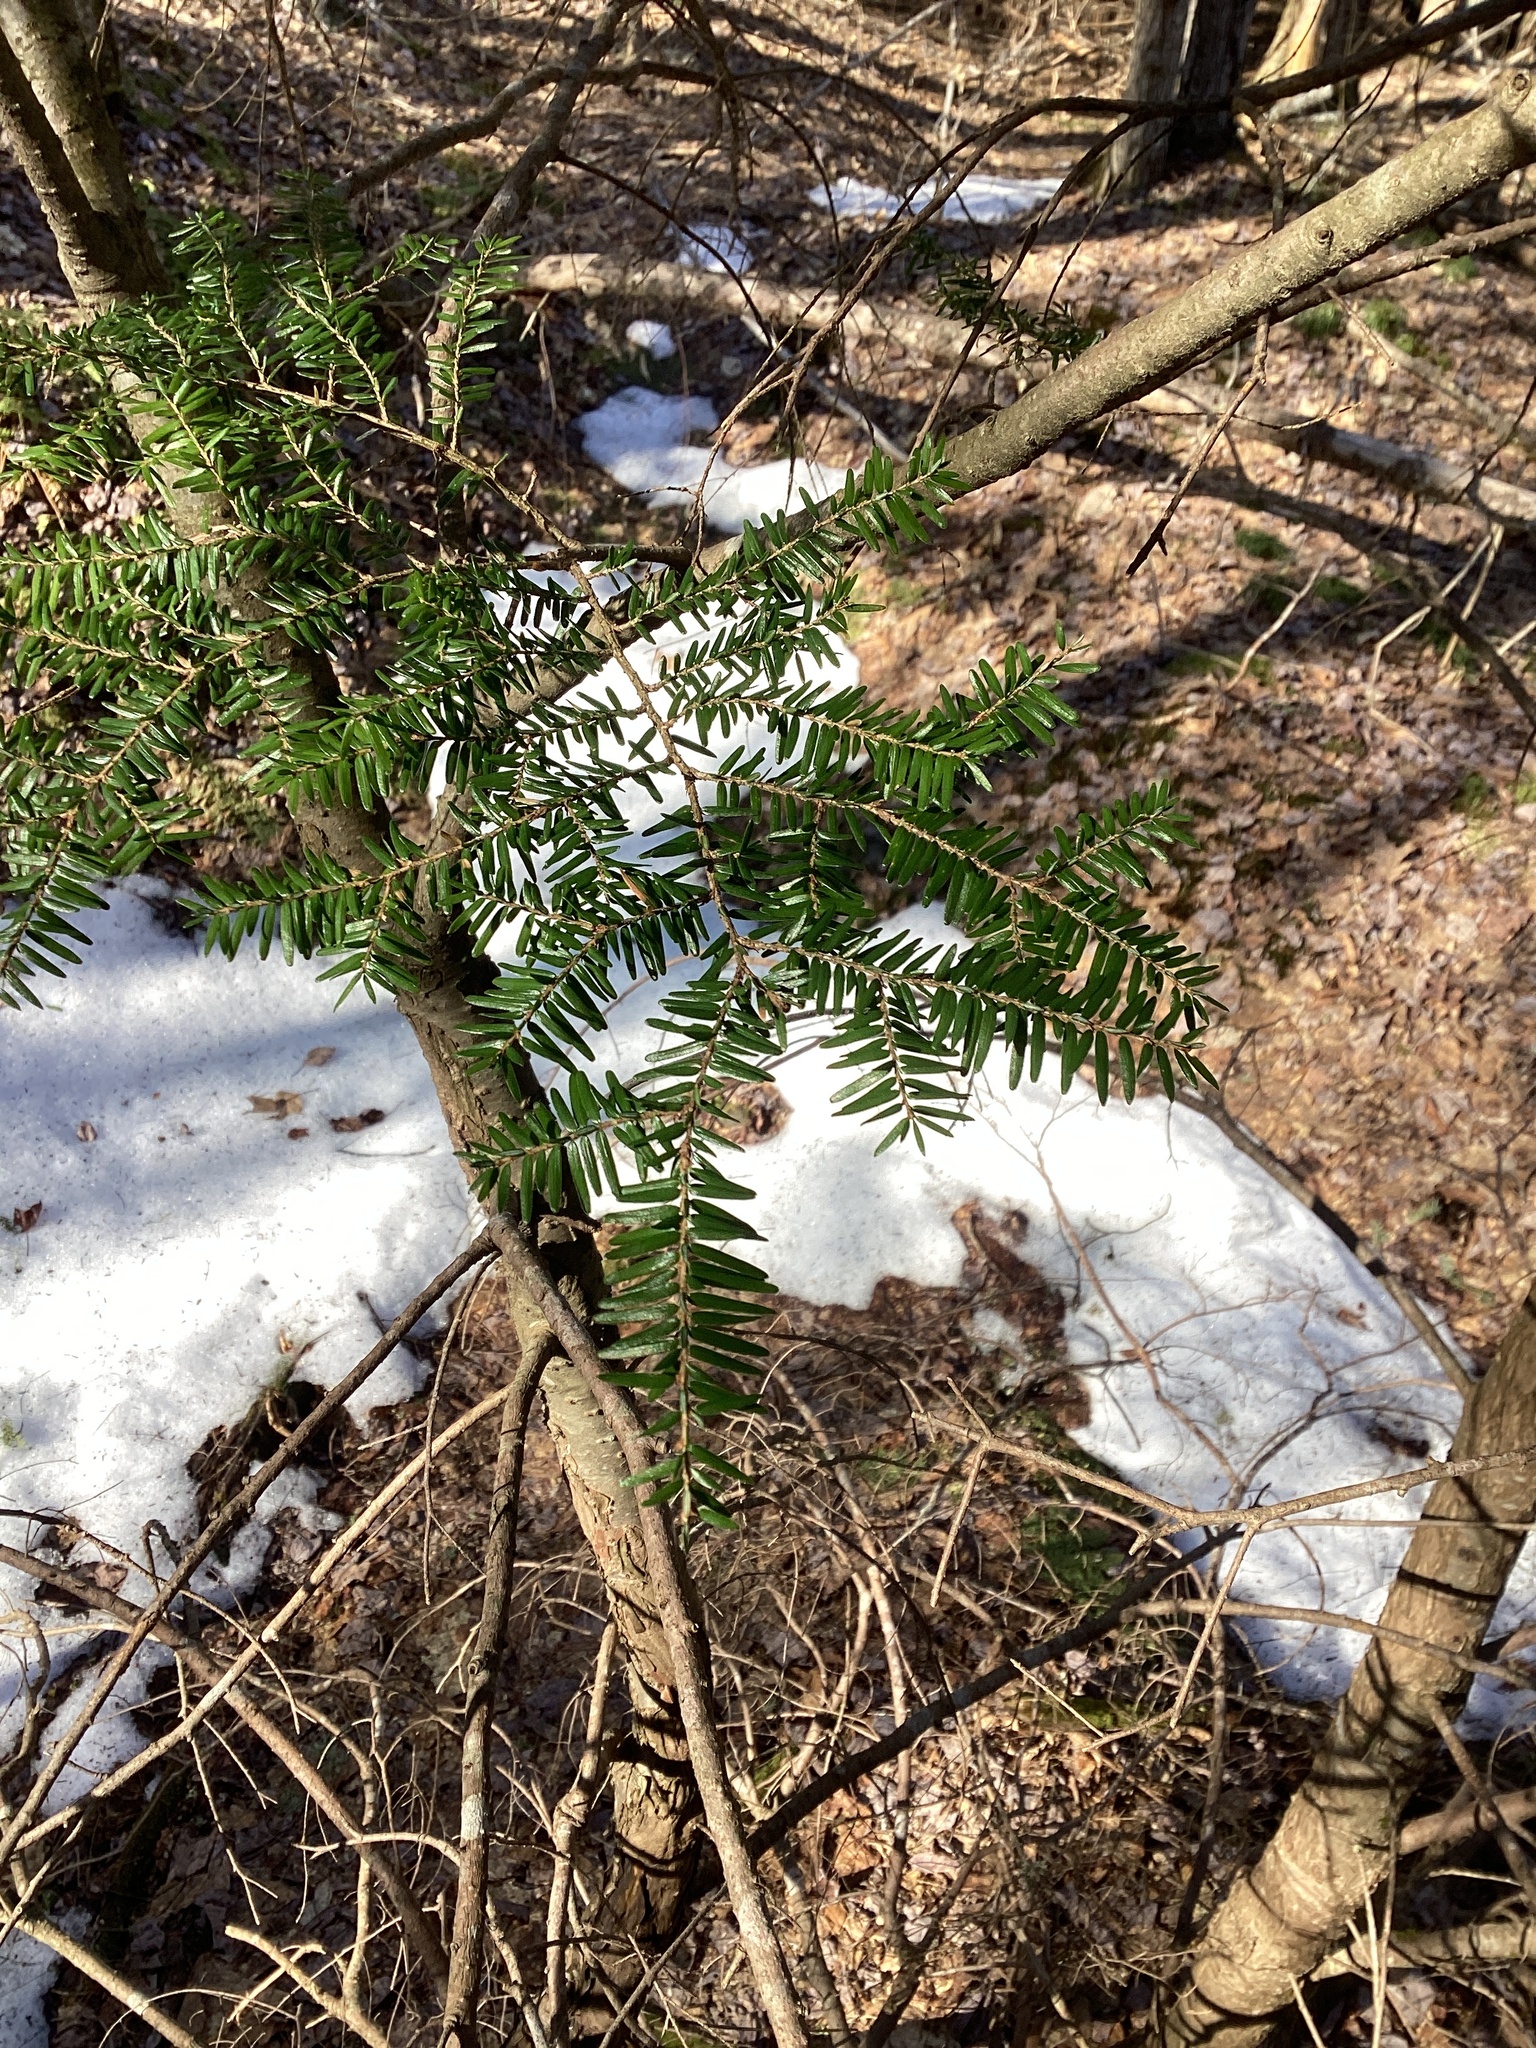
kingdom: Plantae
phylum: Tracheophyta
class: Pinopsida
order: Pinales
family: Pinaceae
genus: Tsuga
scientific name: Tsuga canadensis
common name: Eastern hemlock
